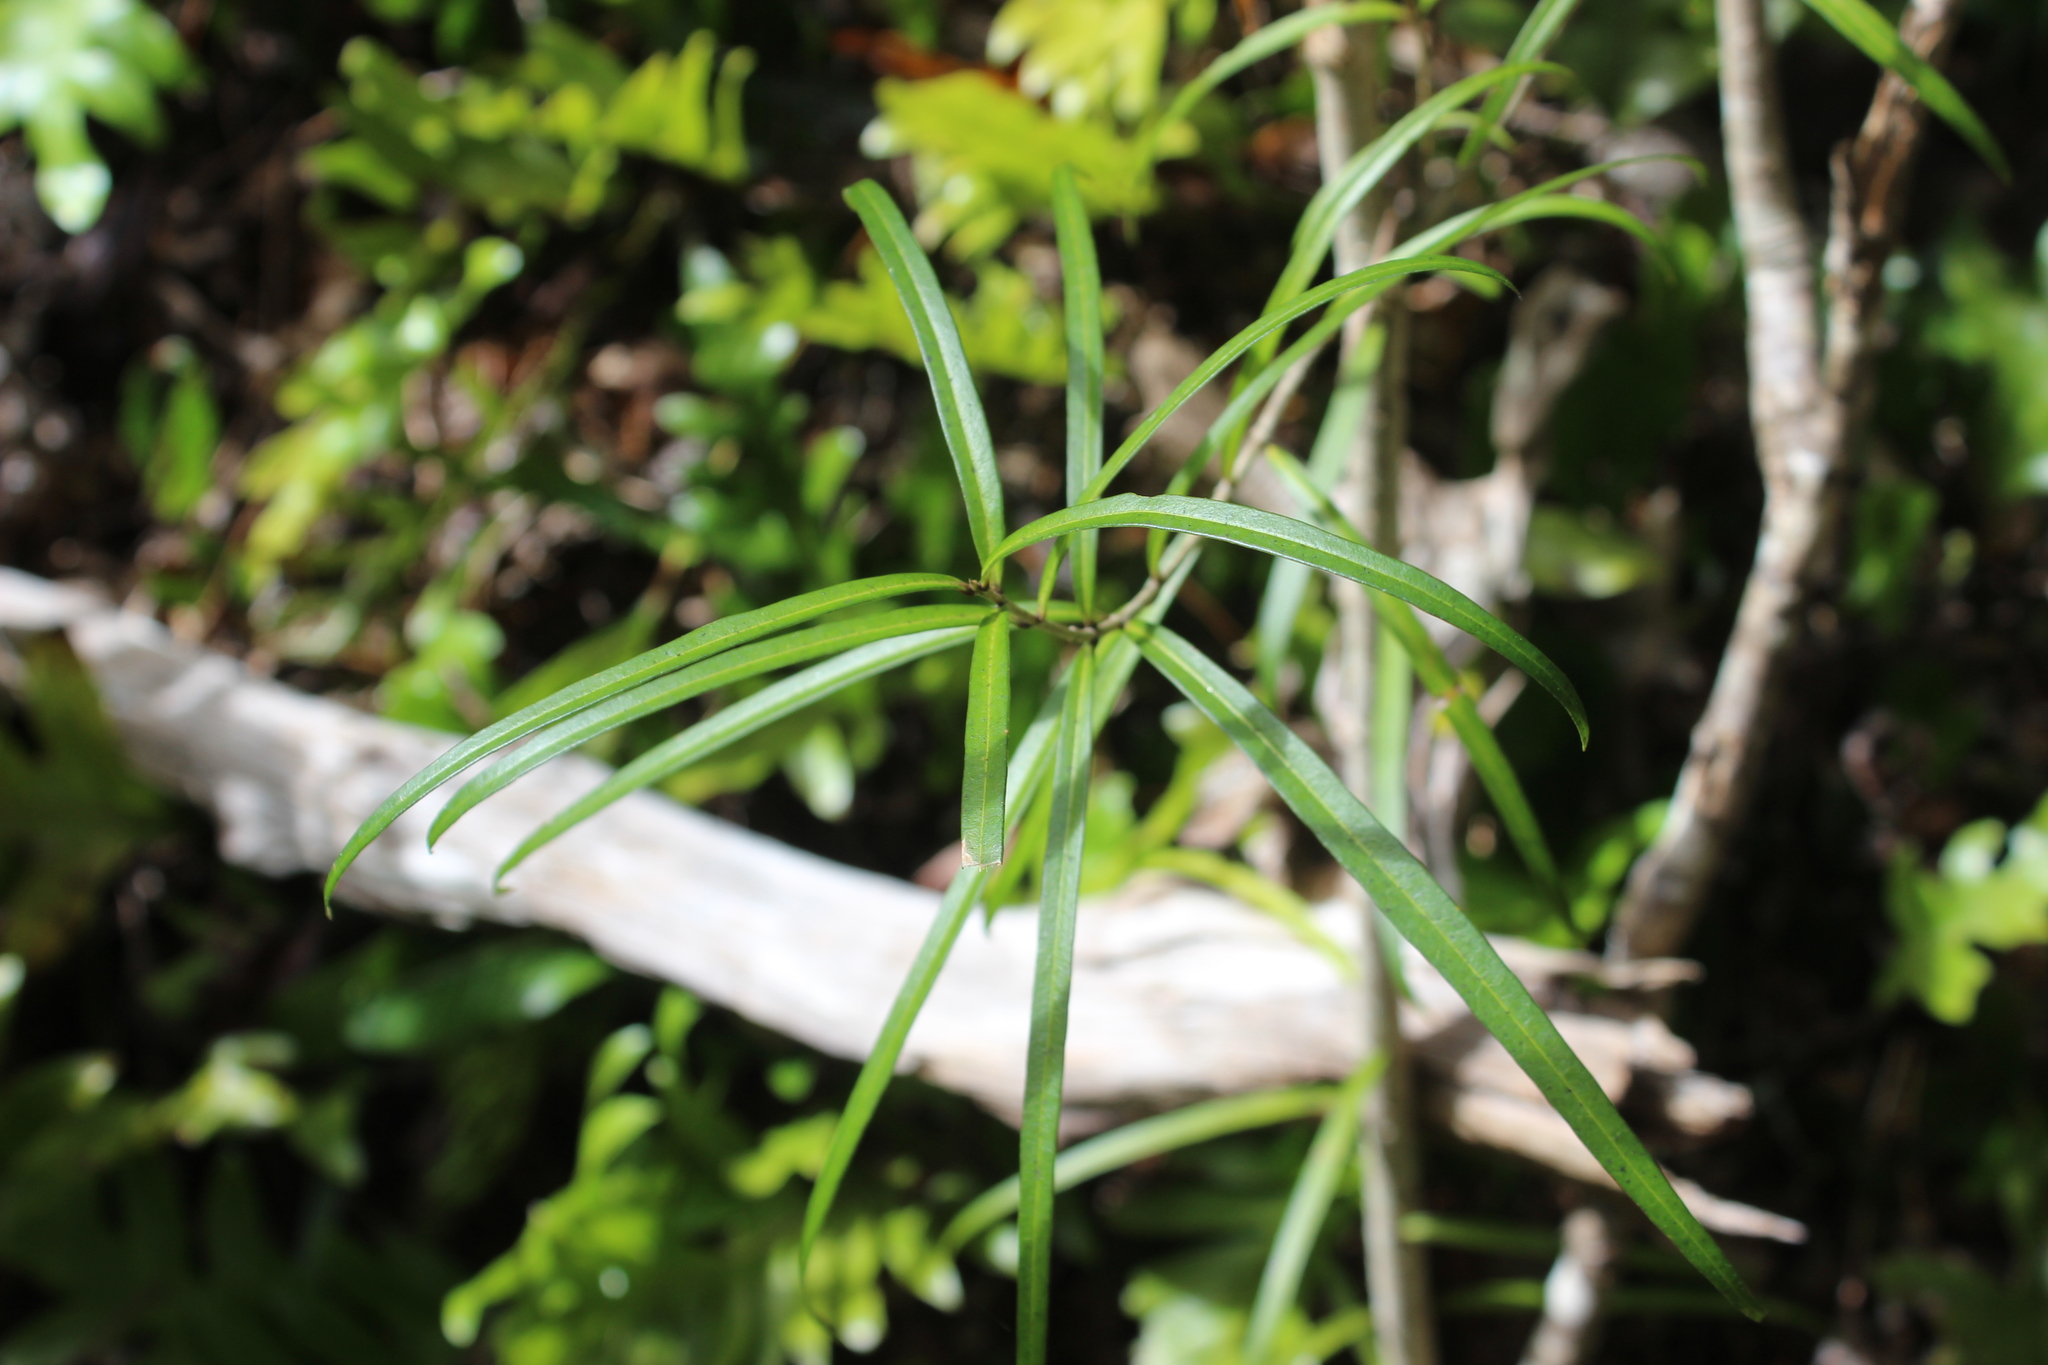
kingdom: Plantae
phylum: Tracheophyta
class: Magnoliopsida
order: Lamiales
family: Oleaceae
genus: Nestegis
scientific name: Nestegis lanceolata
